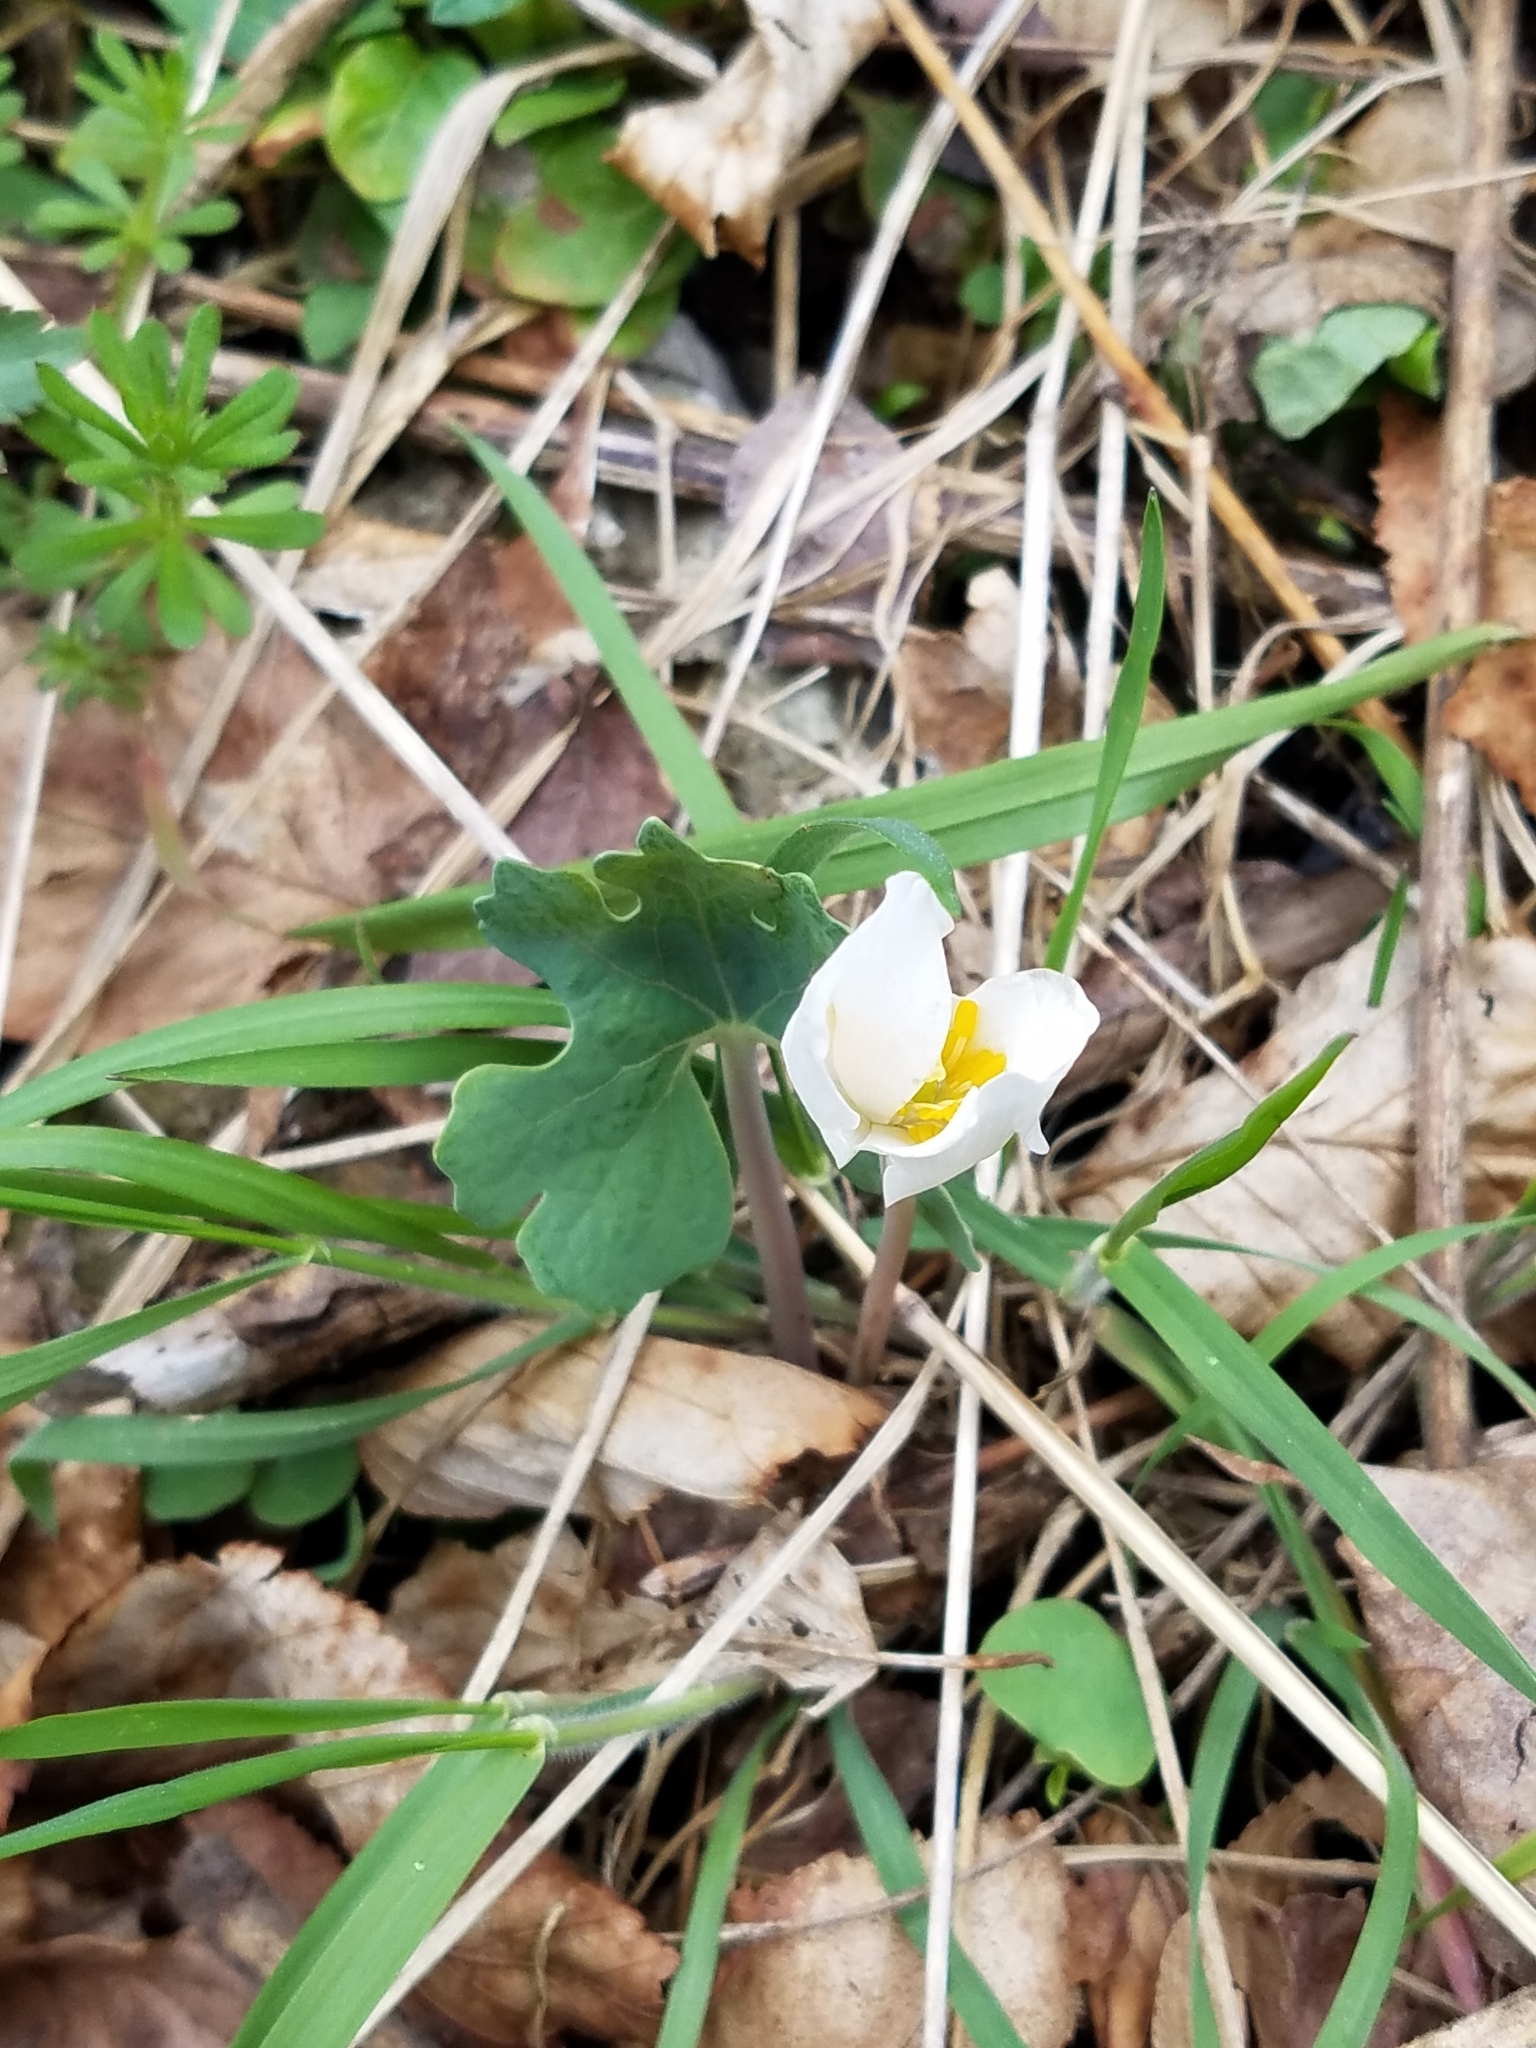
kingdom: Plantae
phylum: Tracheophyta
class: Magnoliopsida
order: Ranunculales
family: Papaveraceae
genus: Sanguinaria
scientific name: Sanguinaria canadensis
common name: Bloodroot
